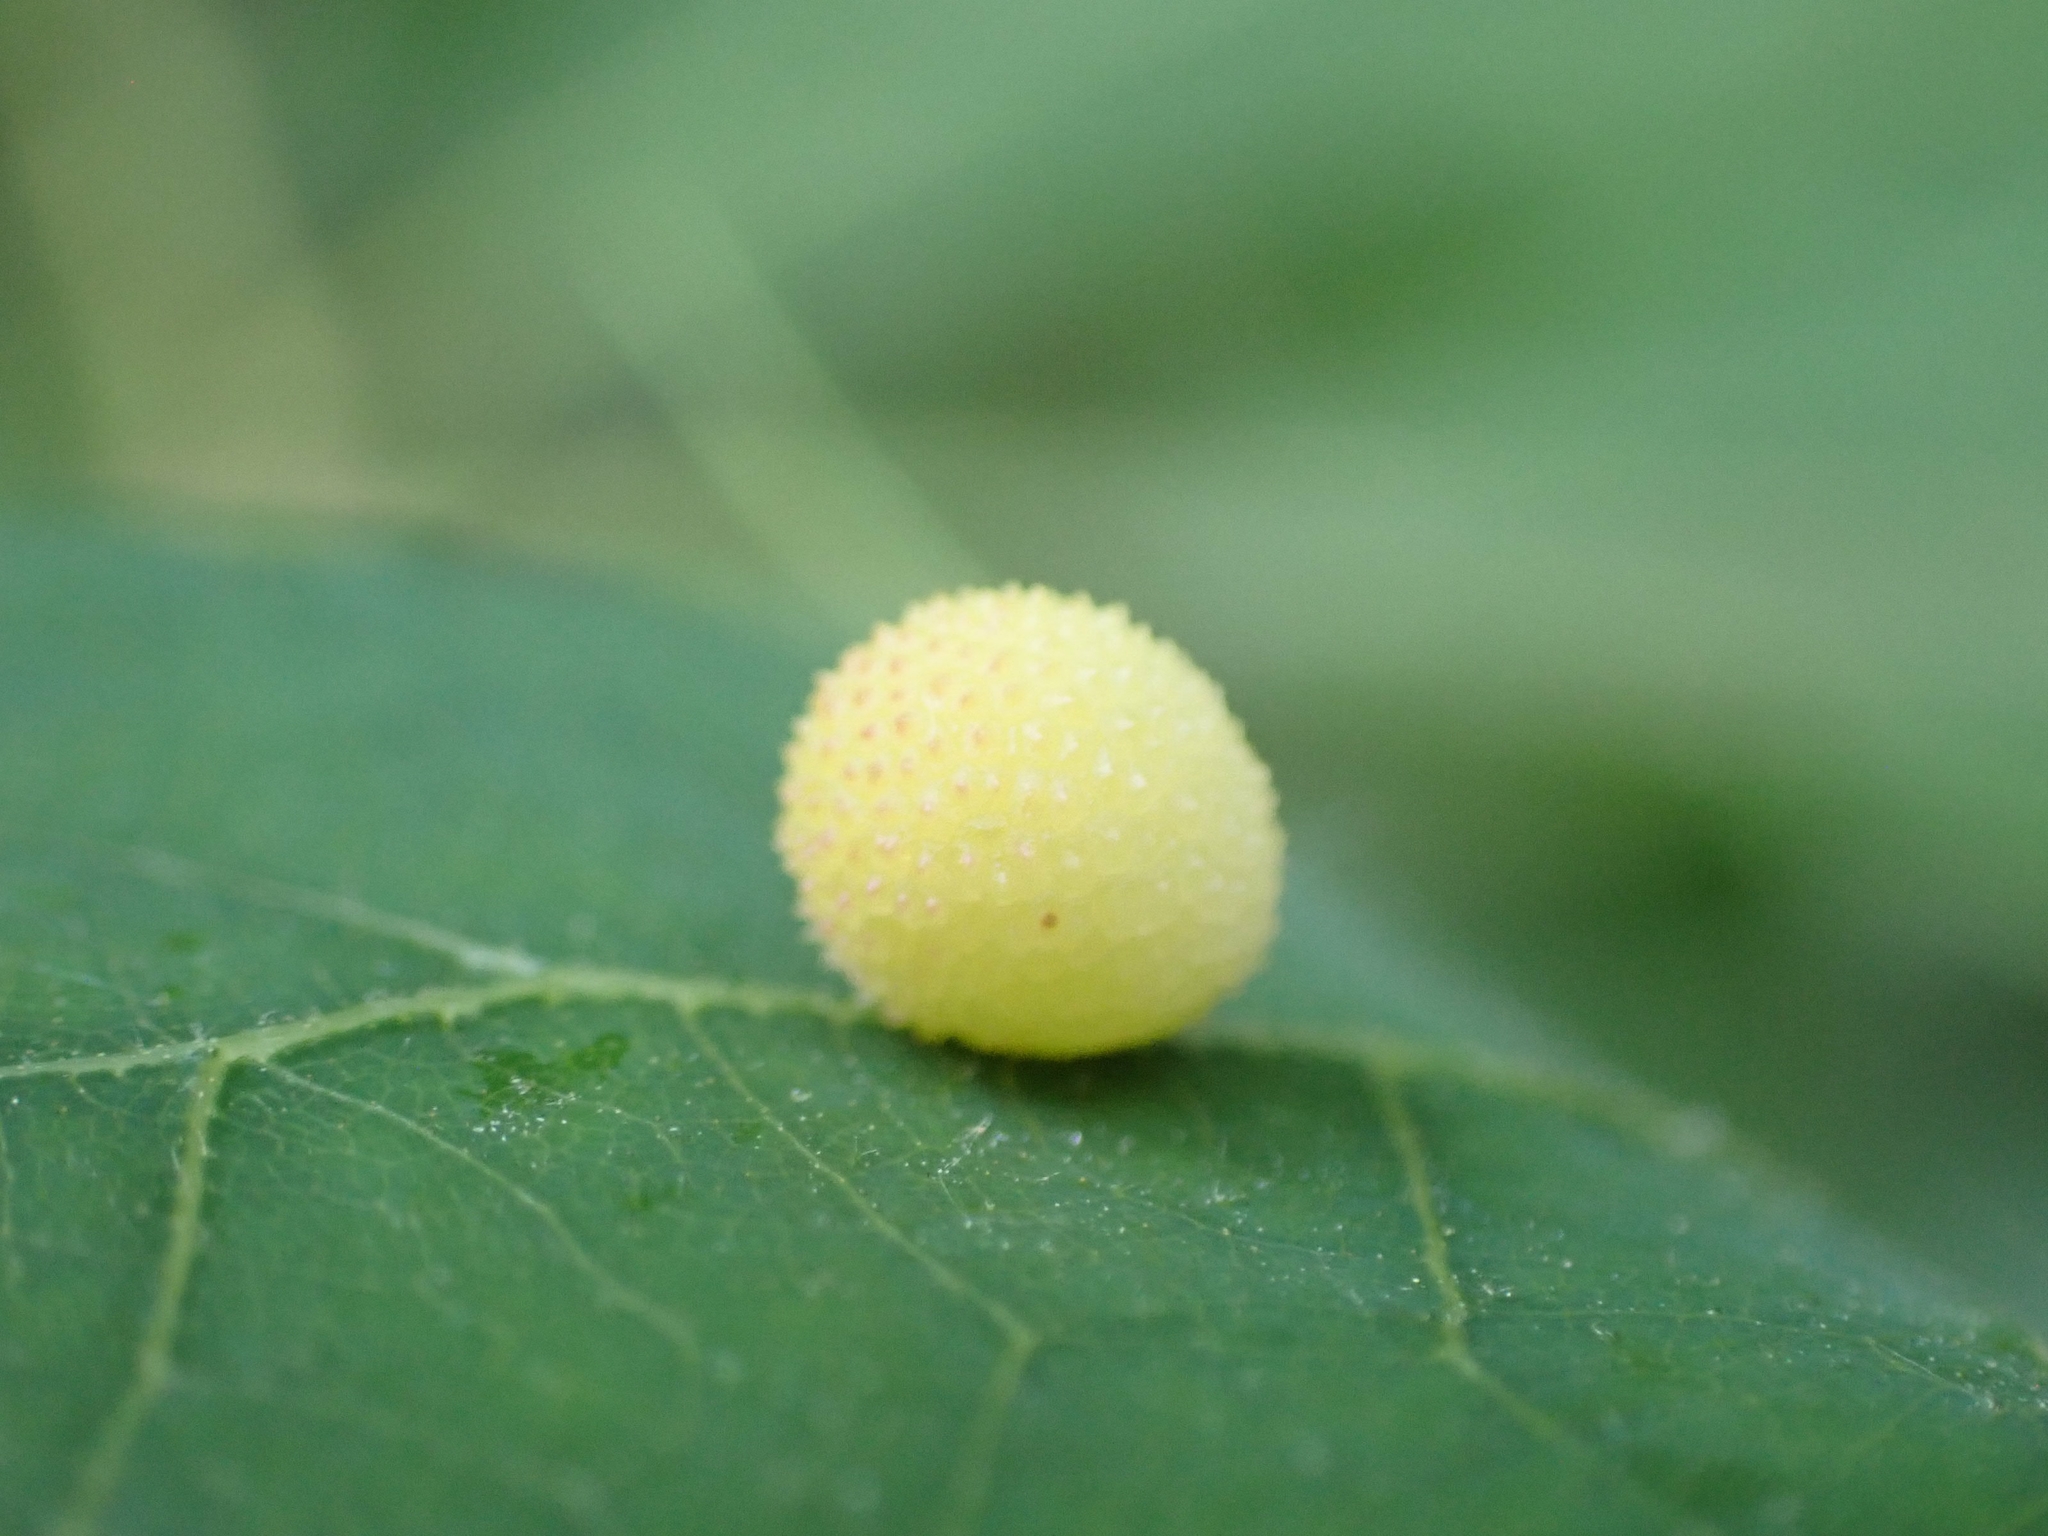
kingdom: Animalia
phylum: Arthropoda
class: Insecta
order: Hymenoptera
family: Cynipidae
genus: Acraspis
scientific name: Acraspis quercushirta
